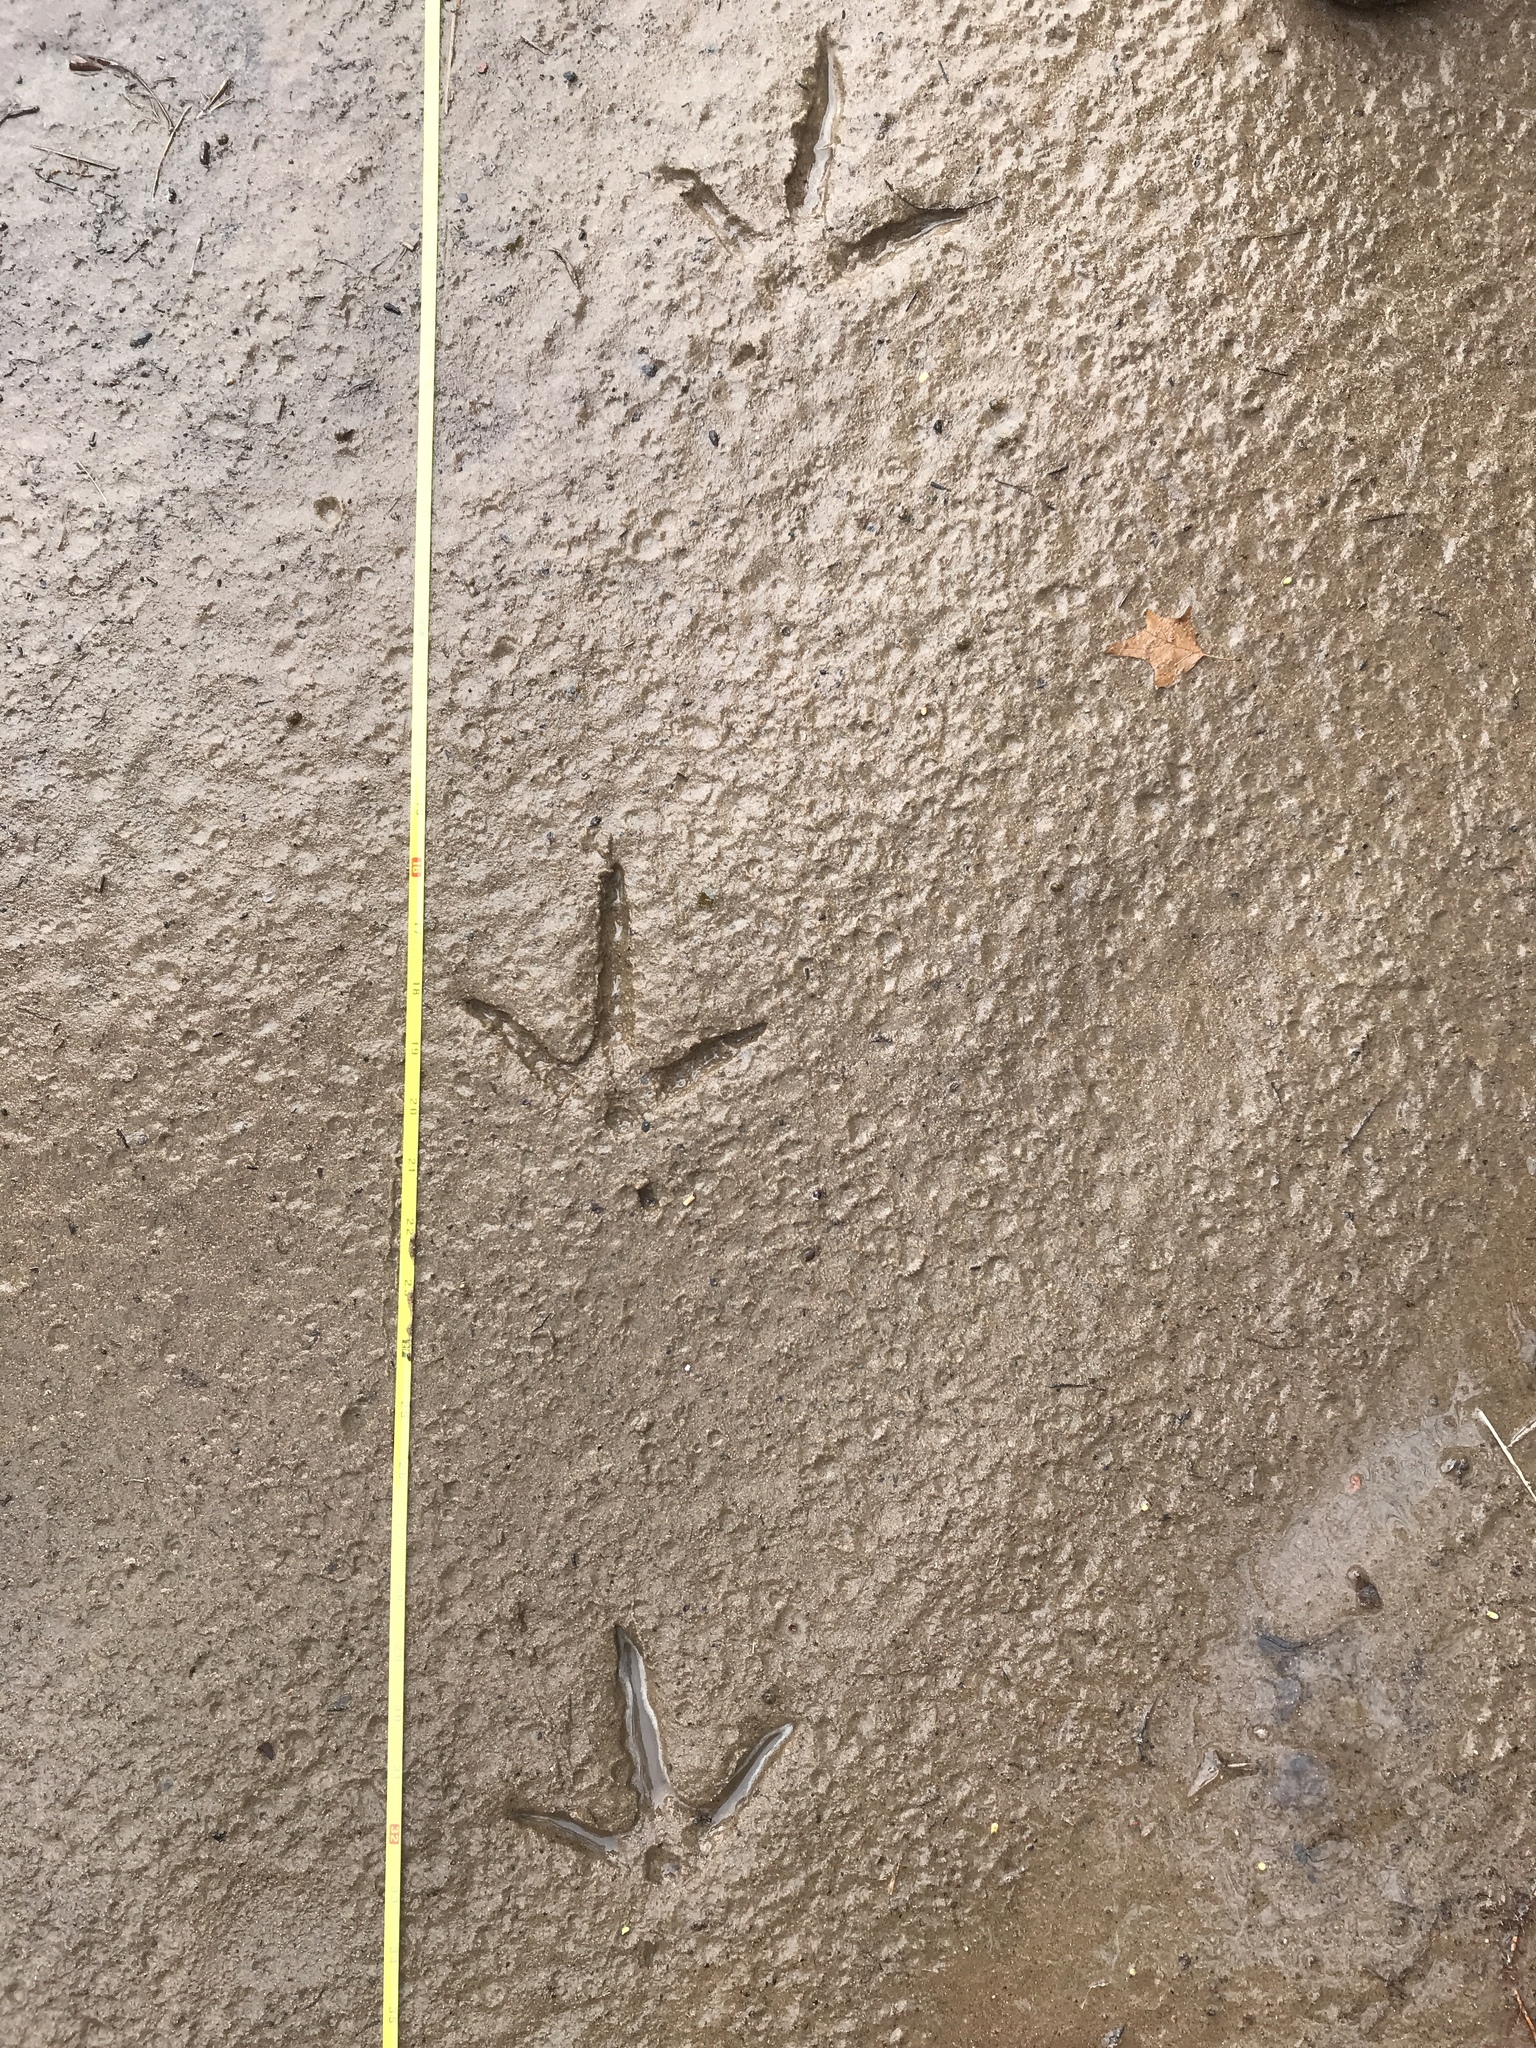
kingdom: Animalia
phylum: Chordata
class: Aves
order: Galliformes
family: Phasianidae
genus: Meleagris
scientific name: Meleagris gallopavo
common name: Wild turkey
